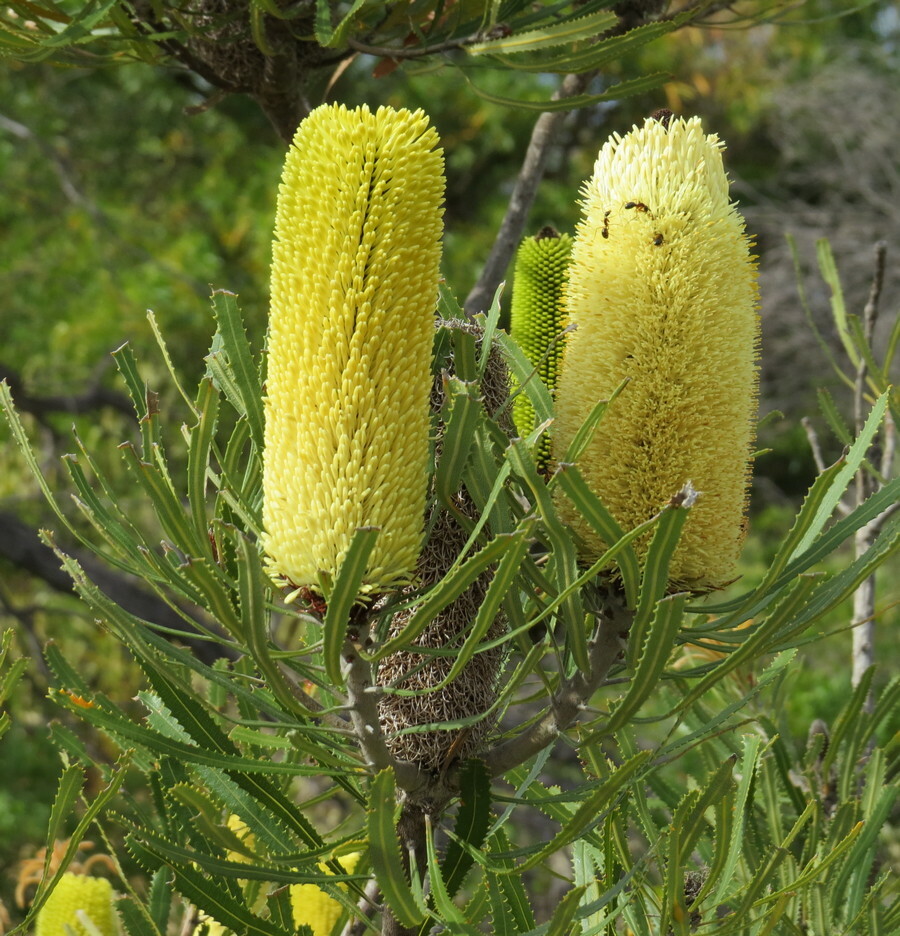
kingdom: Plantae
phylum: Tracheophyta
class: Magnoliopsida
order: Proteales
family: Proteaceae
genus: Banksia
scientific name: Banksia attenuata
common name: Coast banksia
